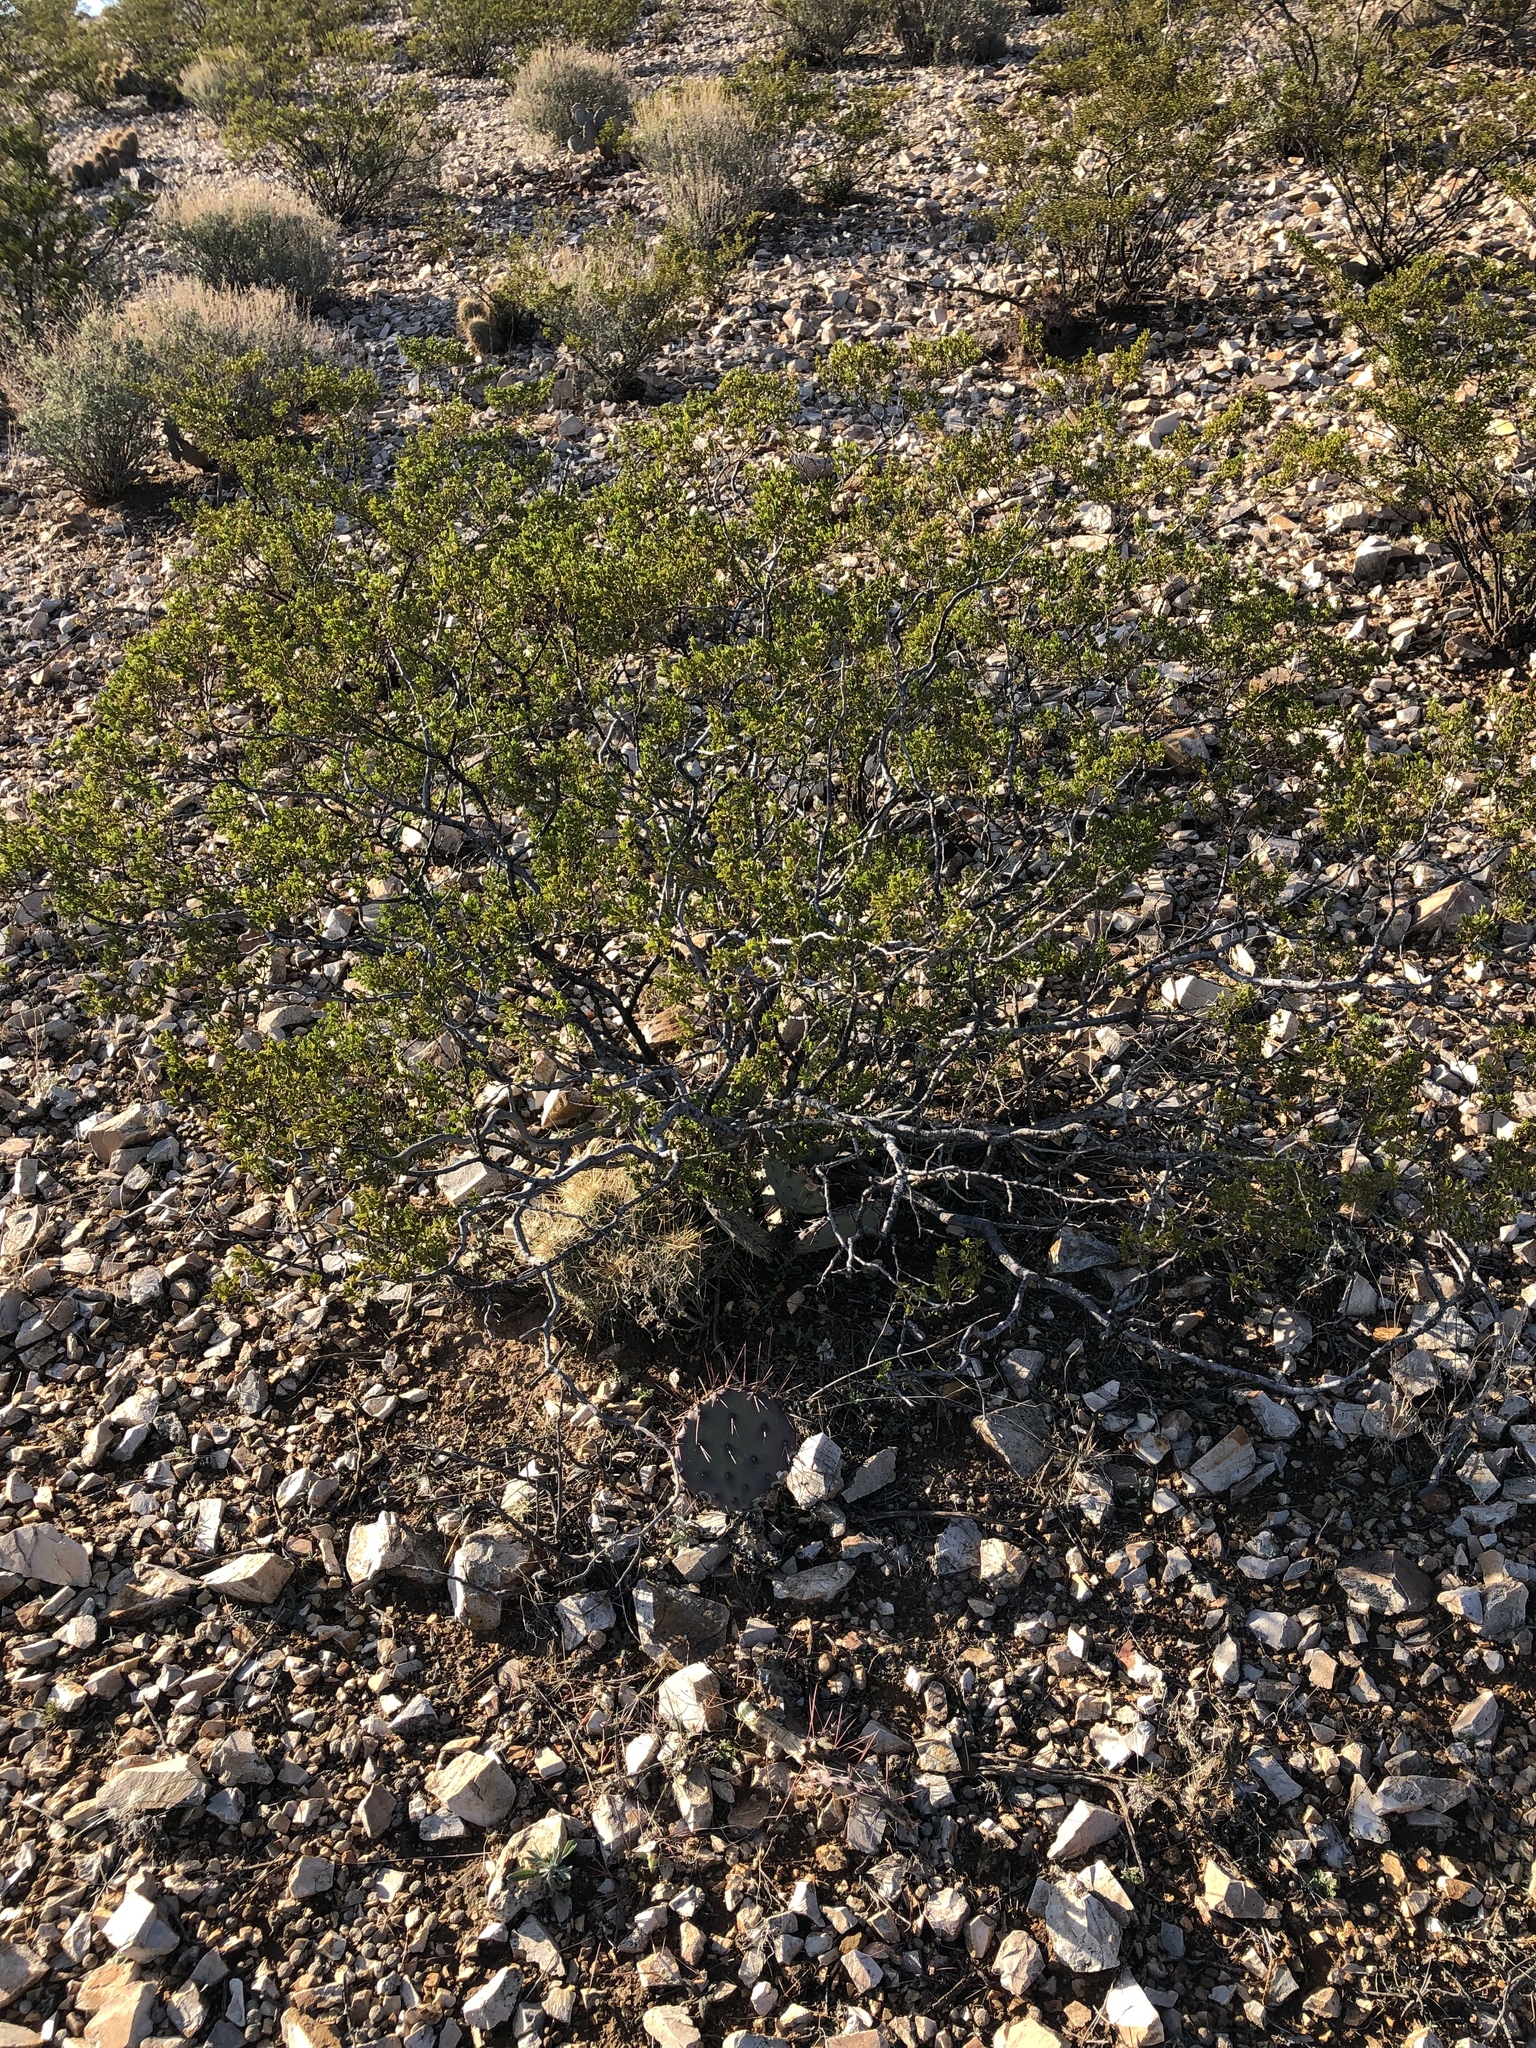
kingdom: Plantae
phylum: Tracheophyta
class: Magnoliopsida
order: Zygophyllales
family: Zygophyllaceae
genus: Larrea
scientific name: Larrea tridentata
